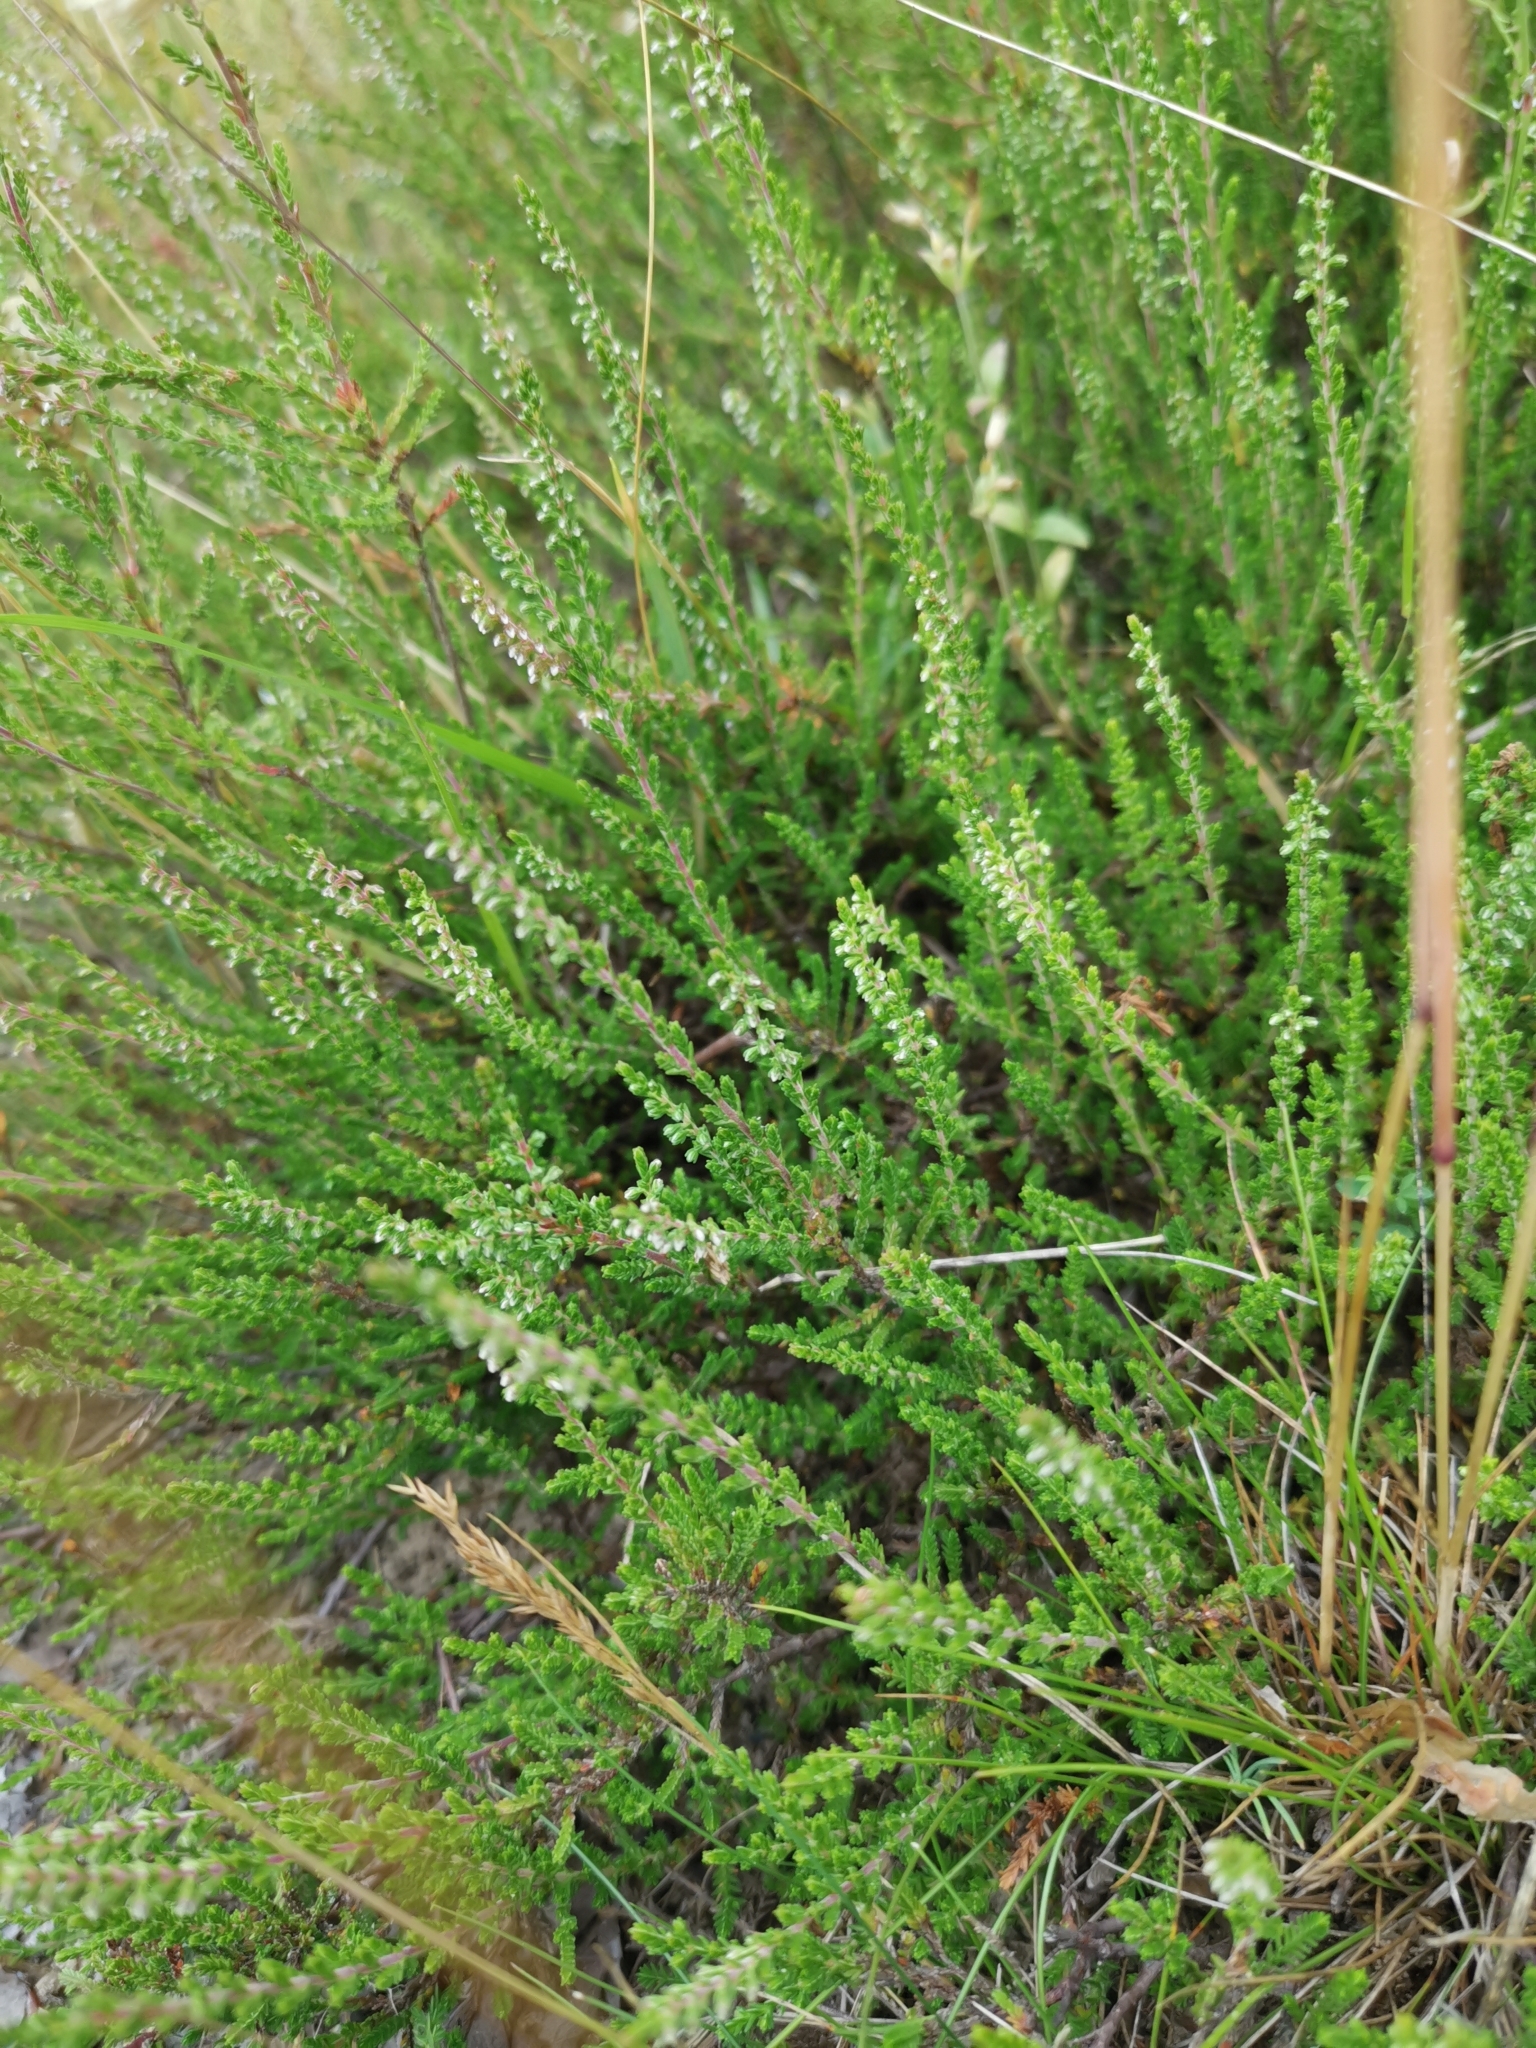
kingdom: Plantae
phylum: Tracheophyta
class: Magnoliopsida
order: Ericales
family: Ericaceae
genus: Calluna
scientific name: Calluna vulgaris
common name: Heather
